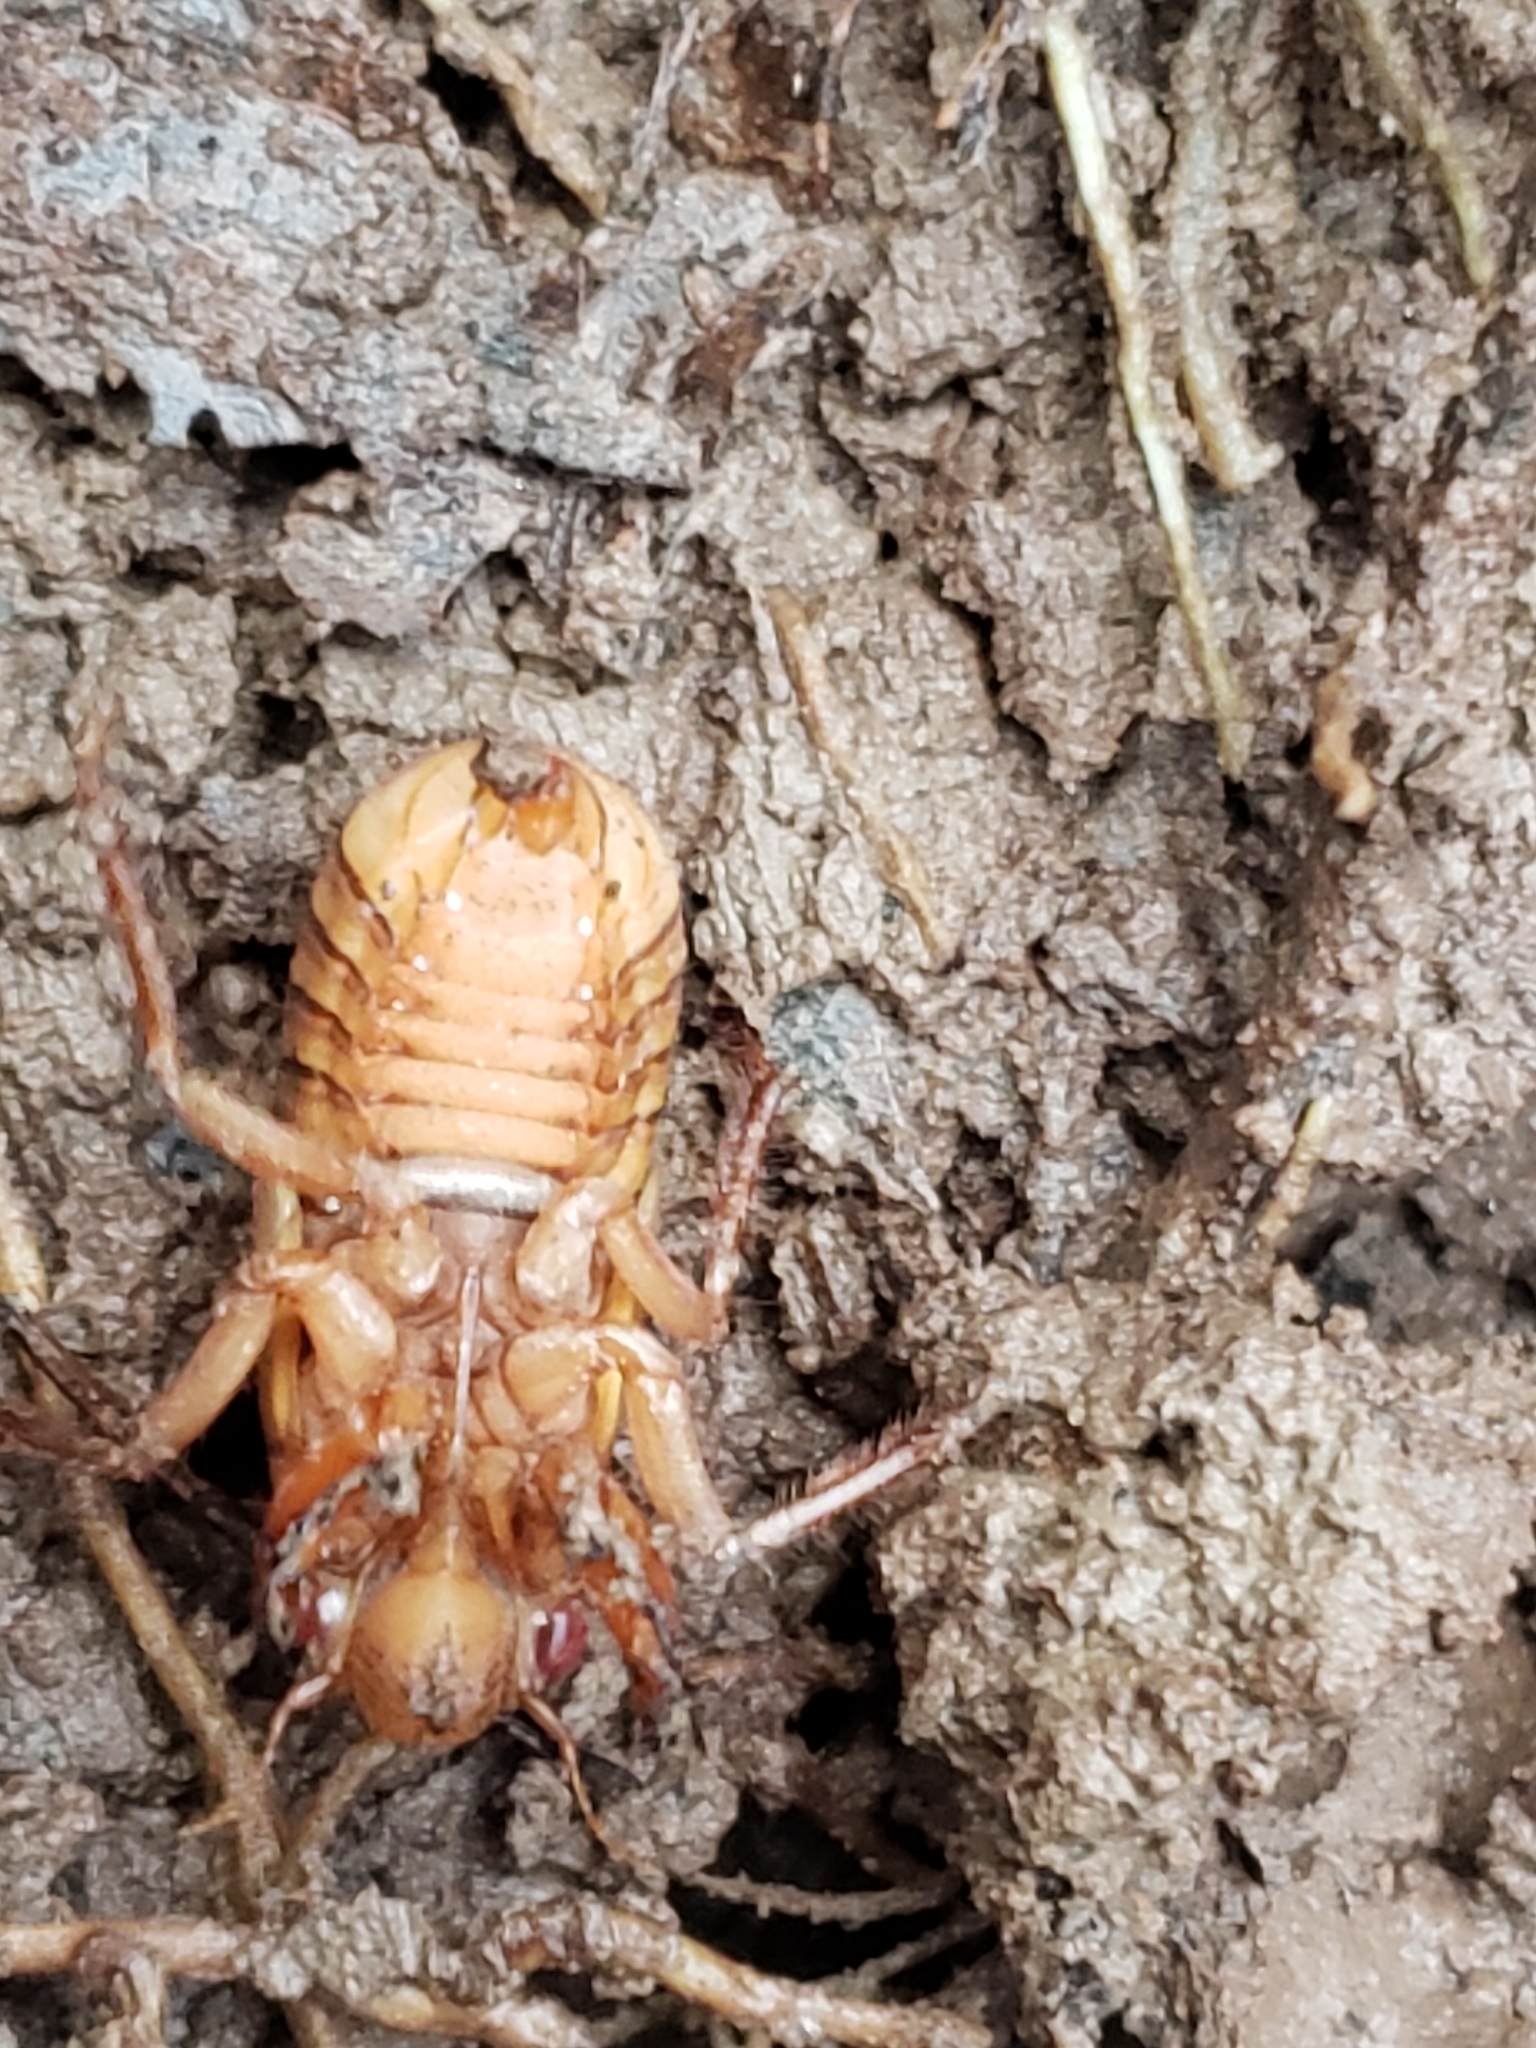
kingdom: Animalia
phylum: Arthropoda
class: Insecta
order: Hemiptera
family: Cicadidae
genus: Magicicada
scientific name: Magicicada
